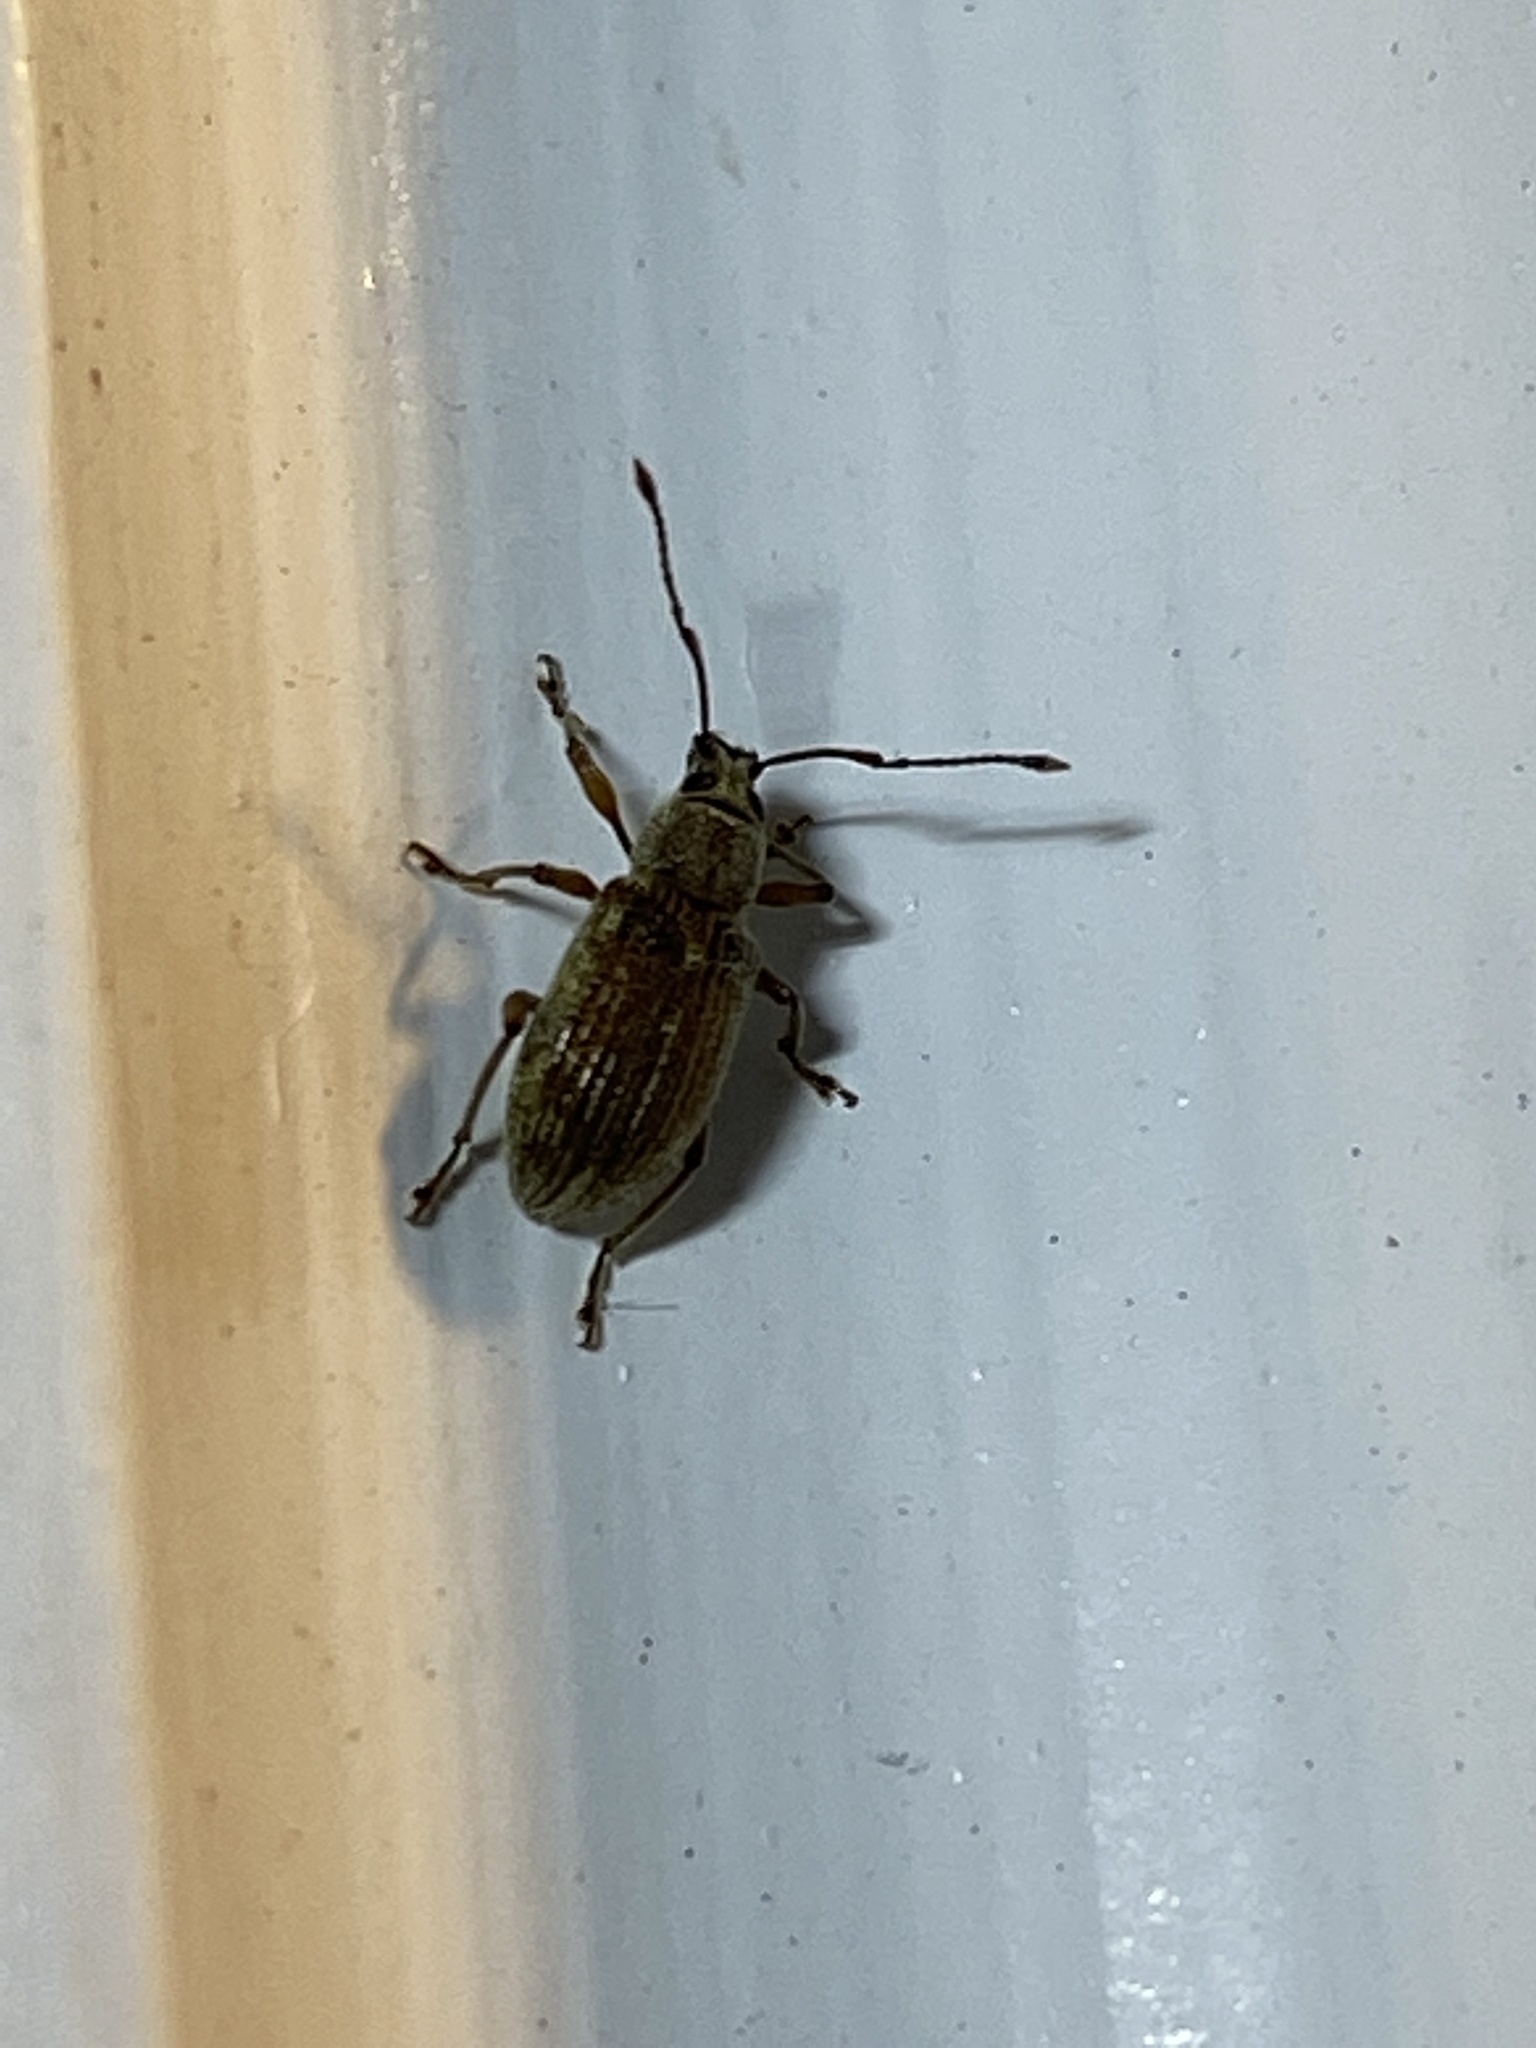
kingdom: Animalia
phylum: Arthropoda
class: Insecta
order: Coleoptera
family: Curculionidae
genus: Cyrtepistomus
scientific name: Cyrtepistomus castaneus
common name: Weevil
